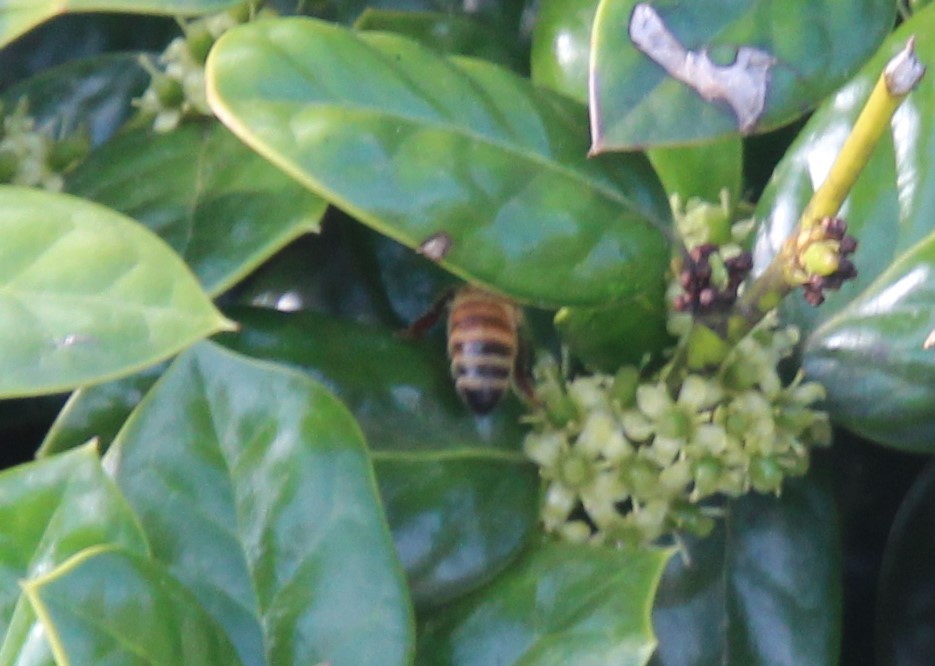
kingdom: Animalia
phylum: Arthropoda
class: Insecta
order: Hymenoptera
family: Apidae
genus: Apis
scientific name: Apis mellifera
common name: Honey bee
